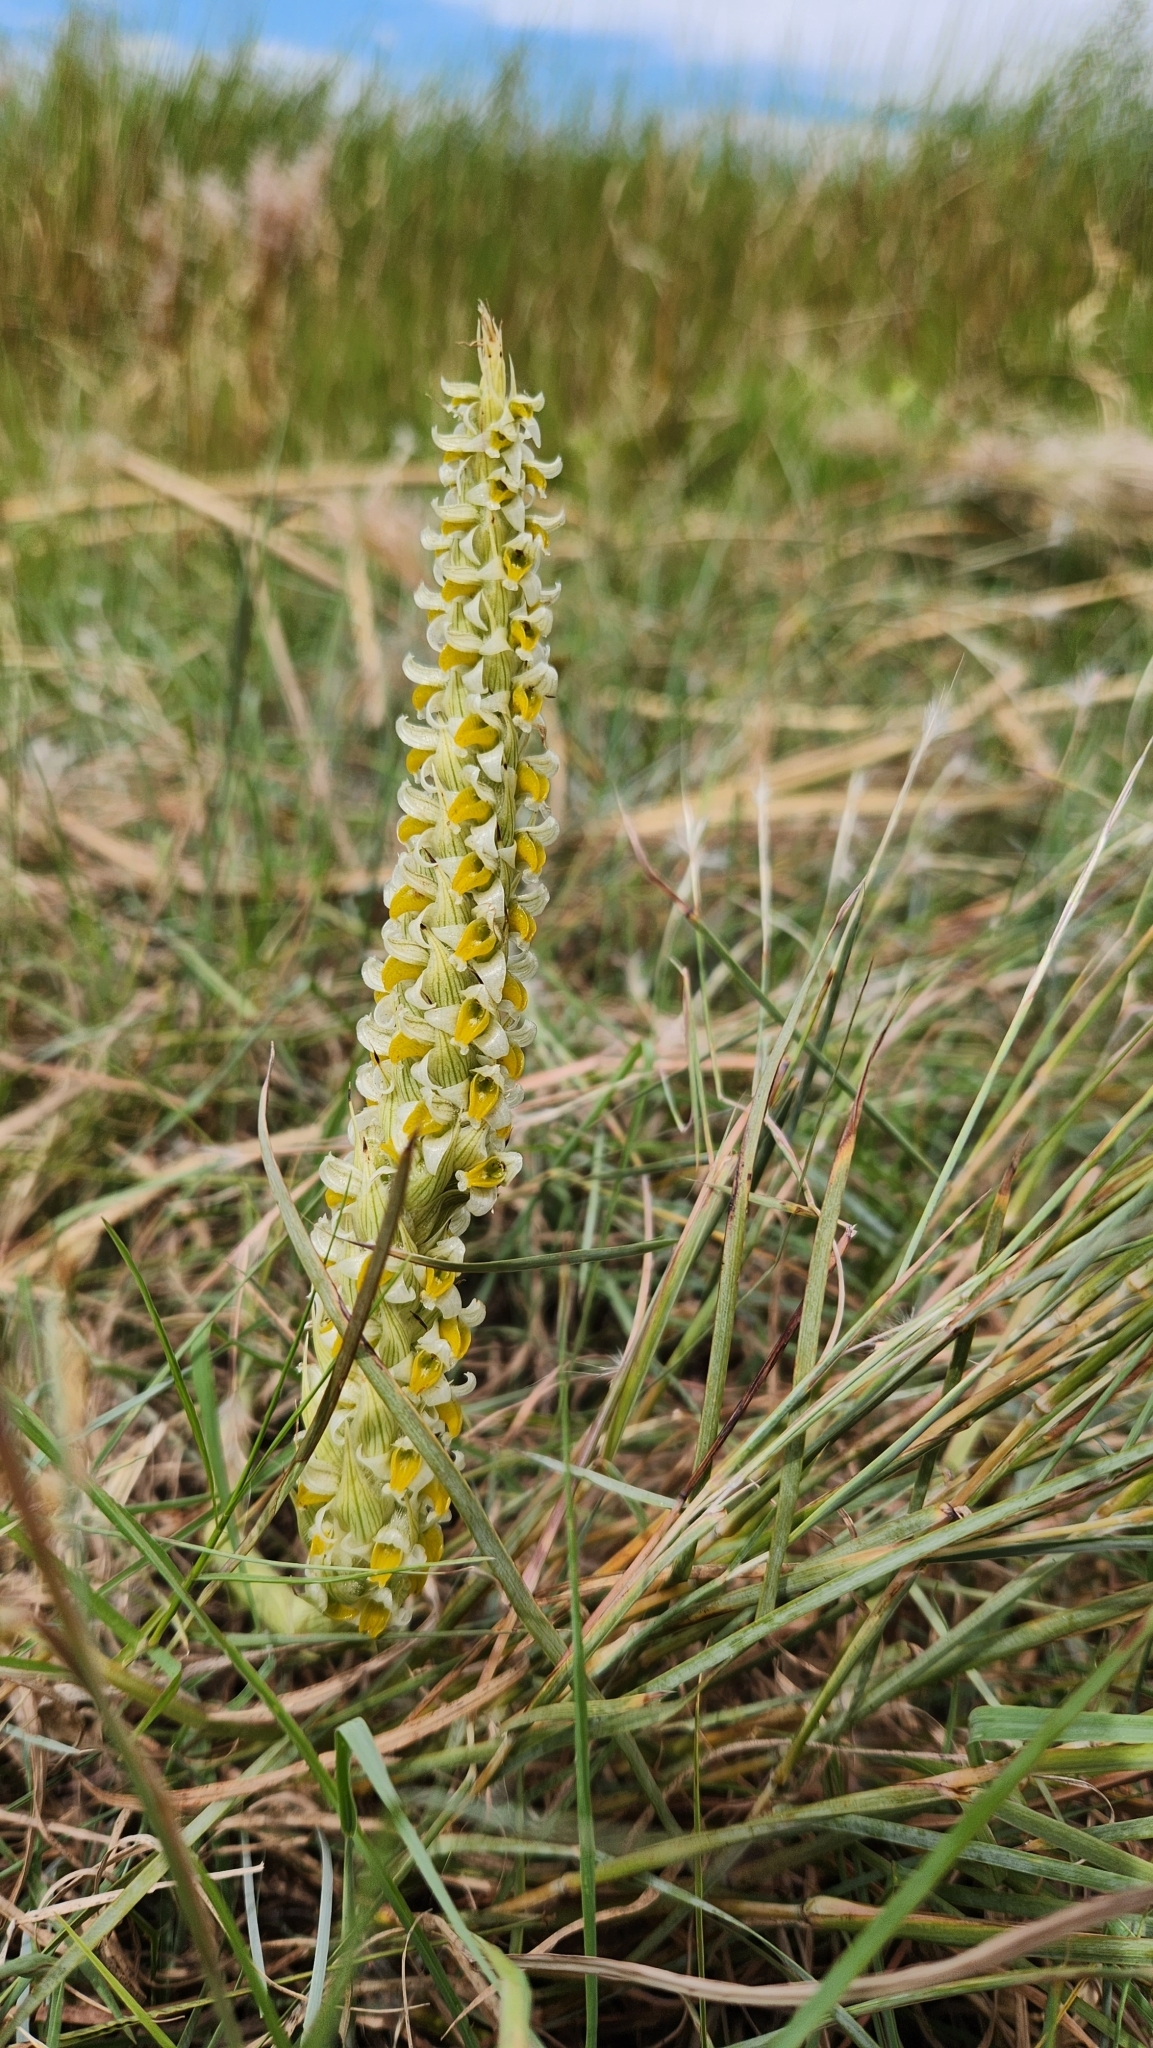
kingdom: Plantae
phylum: Tracheophyta
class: Liliopsida
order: Asparagales
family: Orchidaceae
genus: Brachystele
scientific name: Brachystele dilatata
